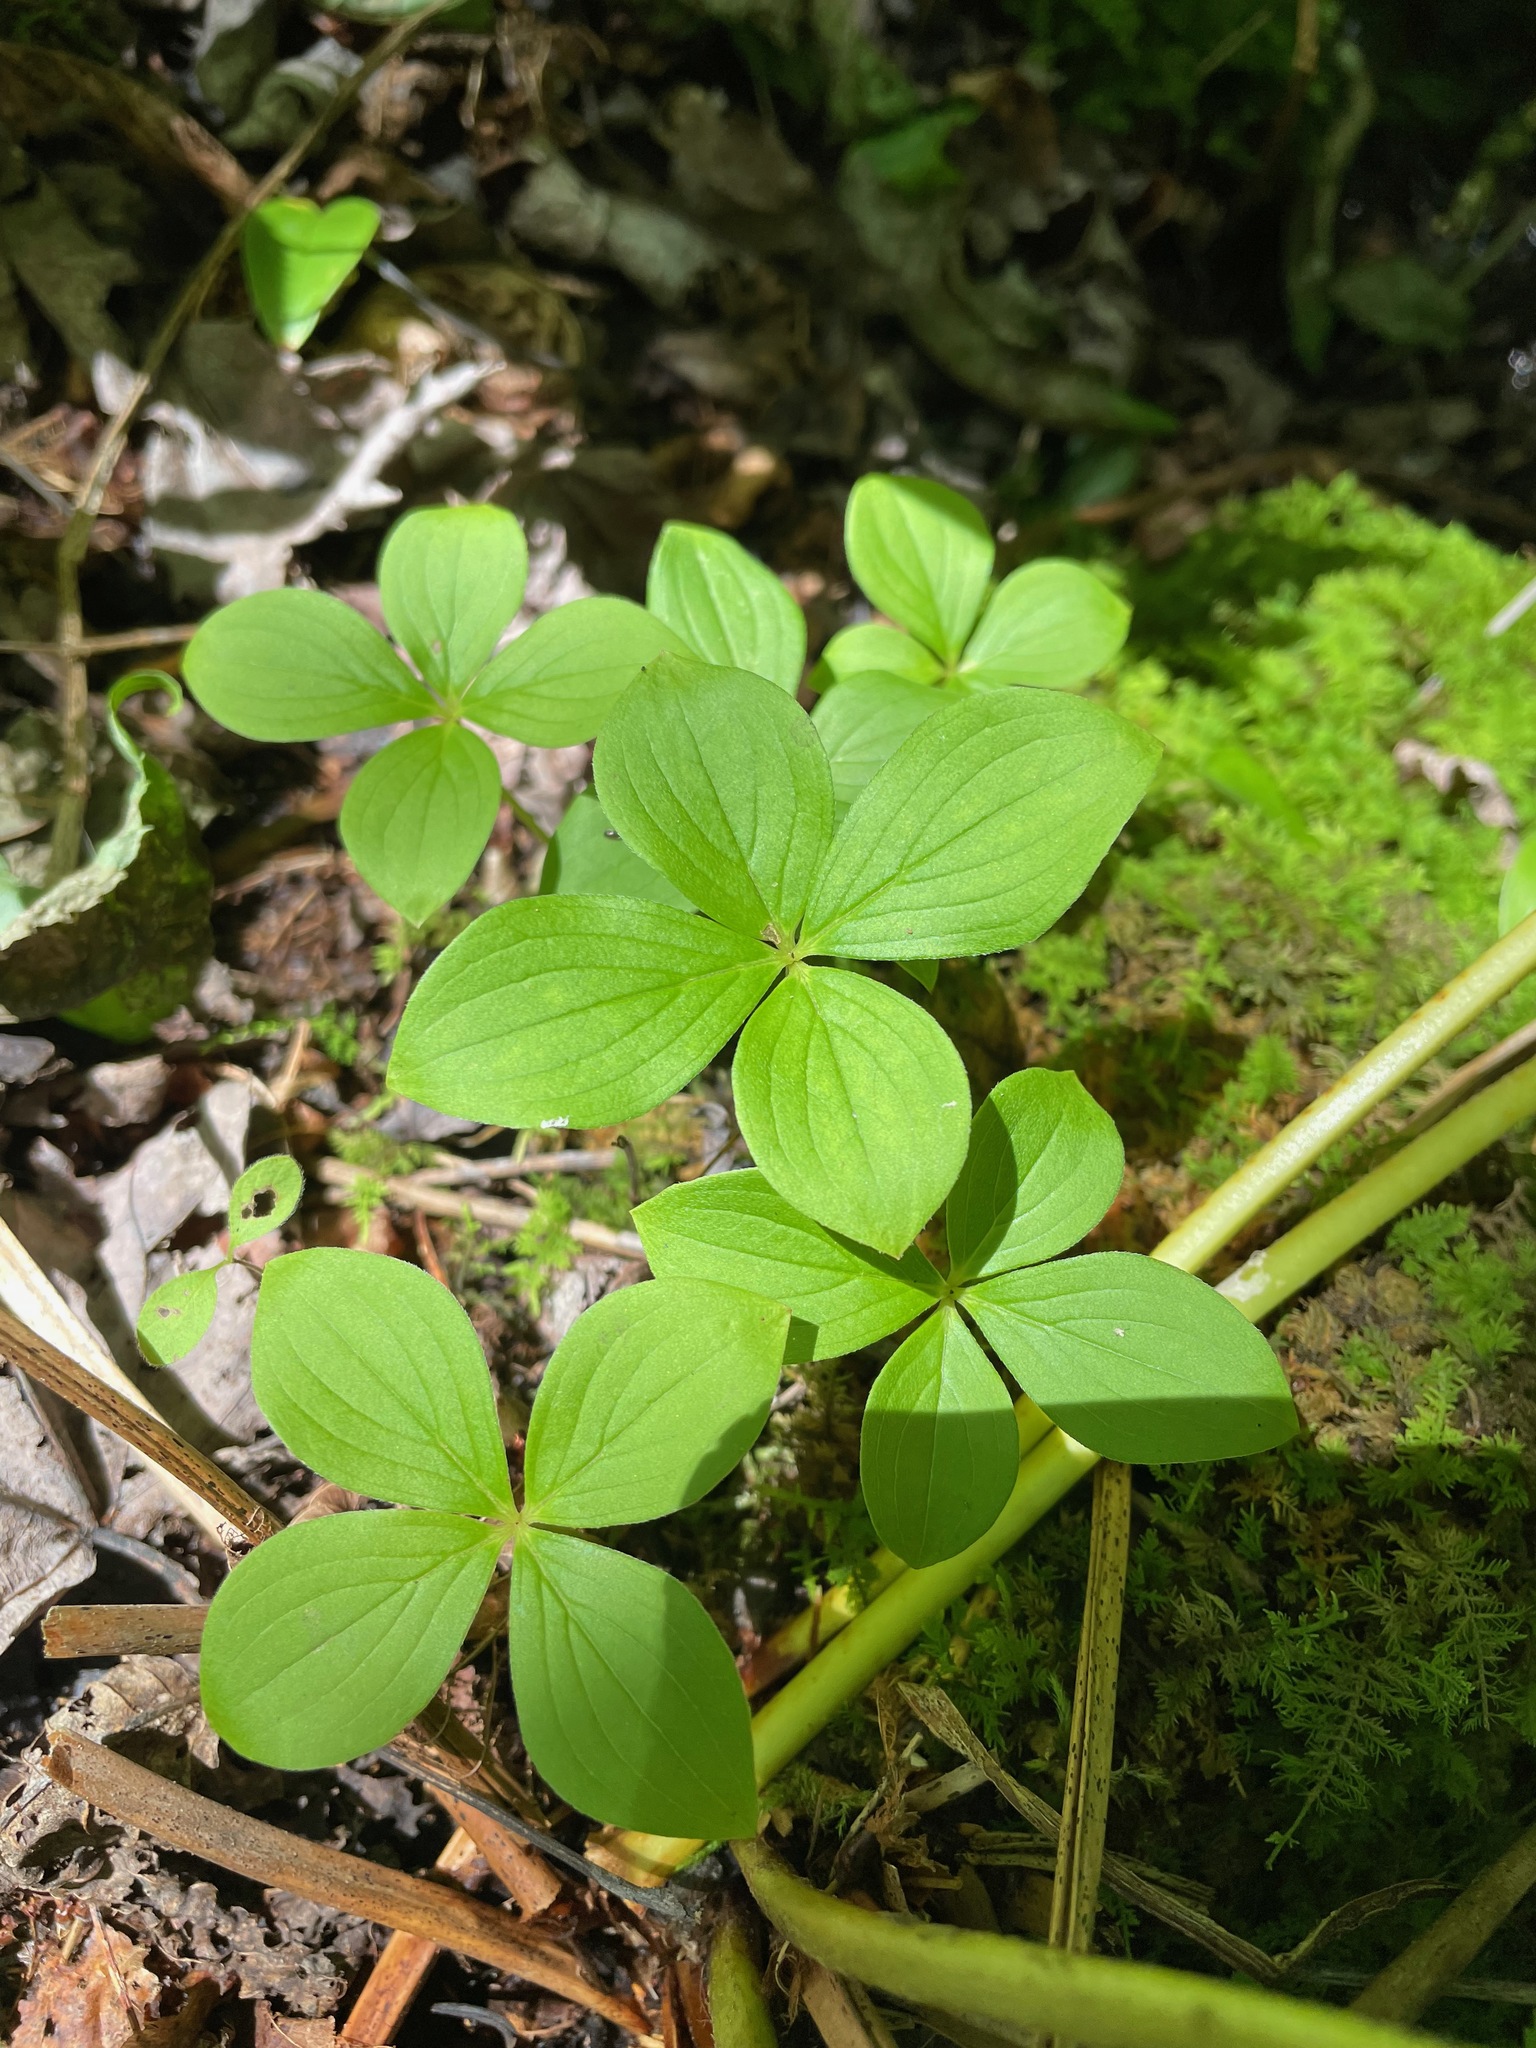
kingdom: Plantae
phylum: Tracheophyta
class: Magnoliopsida
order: Cornales
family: Cornaceae
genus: Cornus
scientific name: Cornus canadensis
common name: Creeping dogwood
